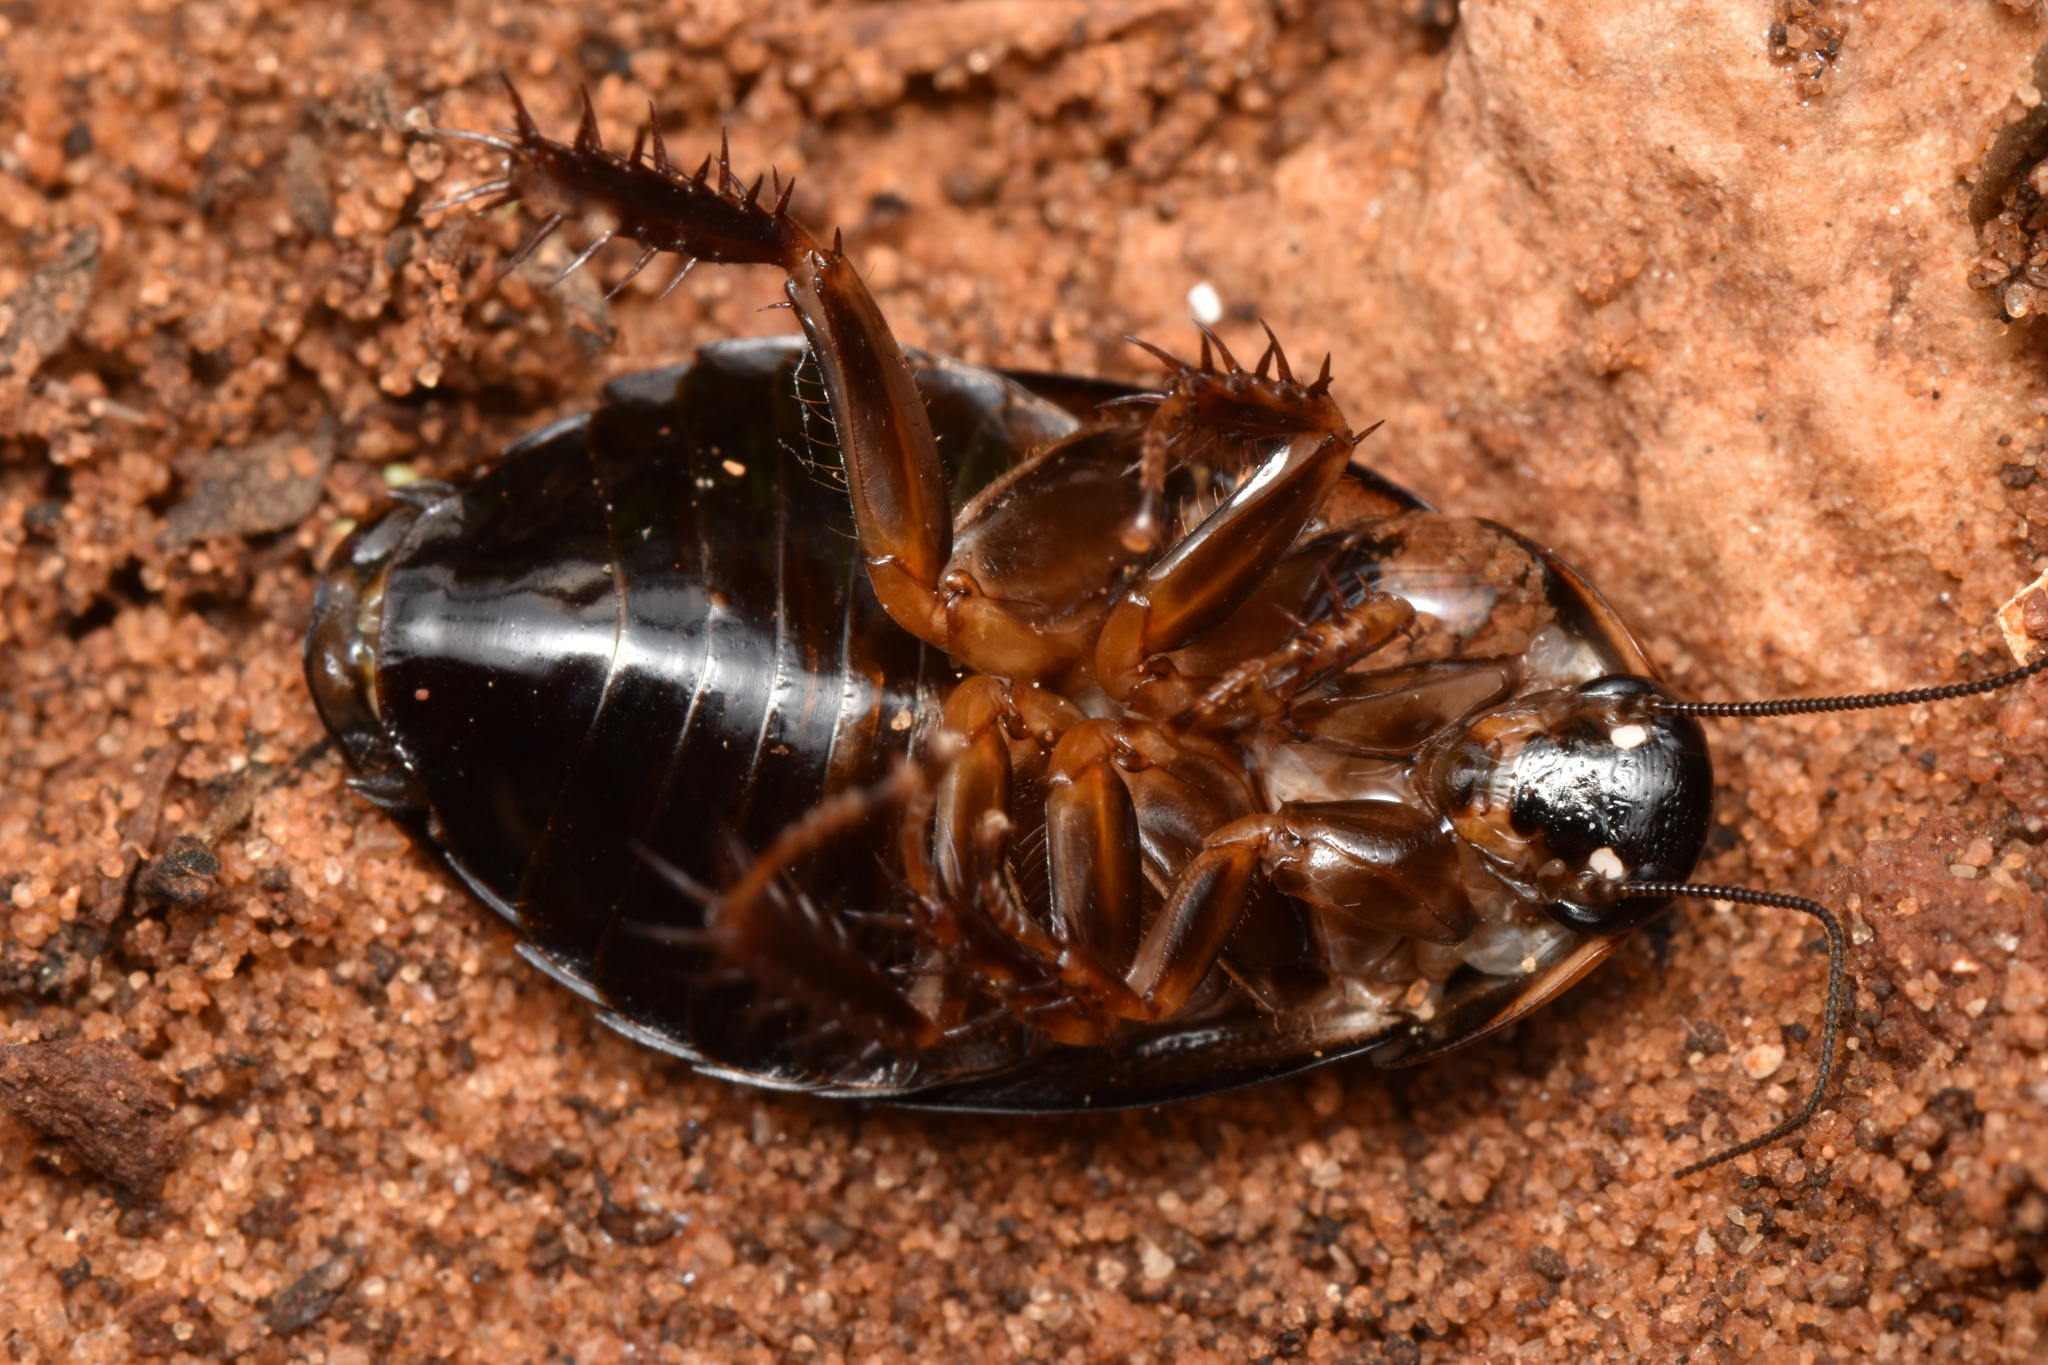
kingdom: Animalia
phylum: Arthropoda
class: Insecta
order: Blattodea
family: Blaberidae
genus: Pycnoscelus
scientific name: Pycnoscelus surinamensis
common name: Surinam cockroach
